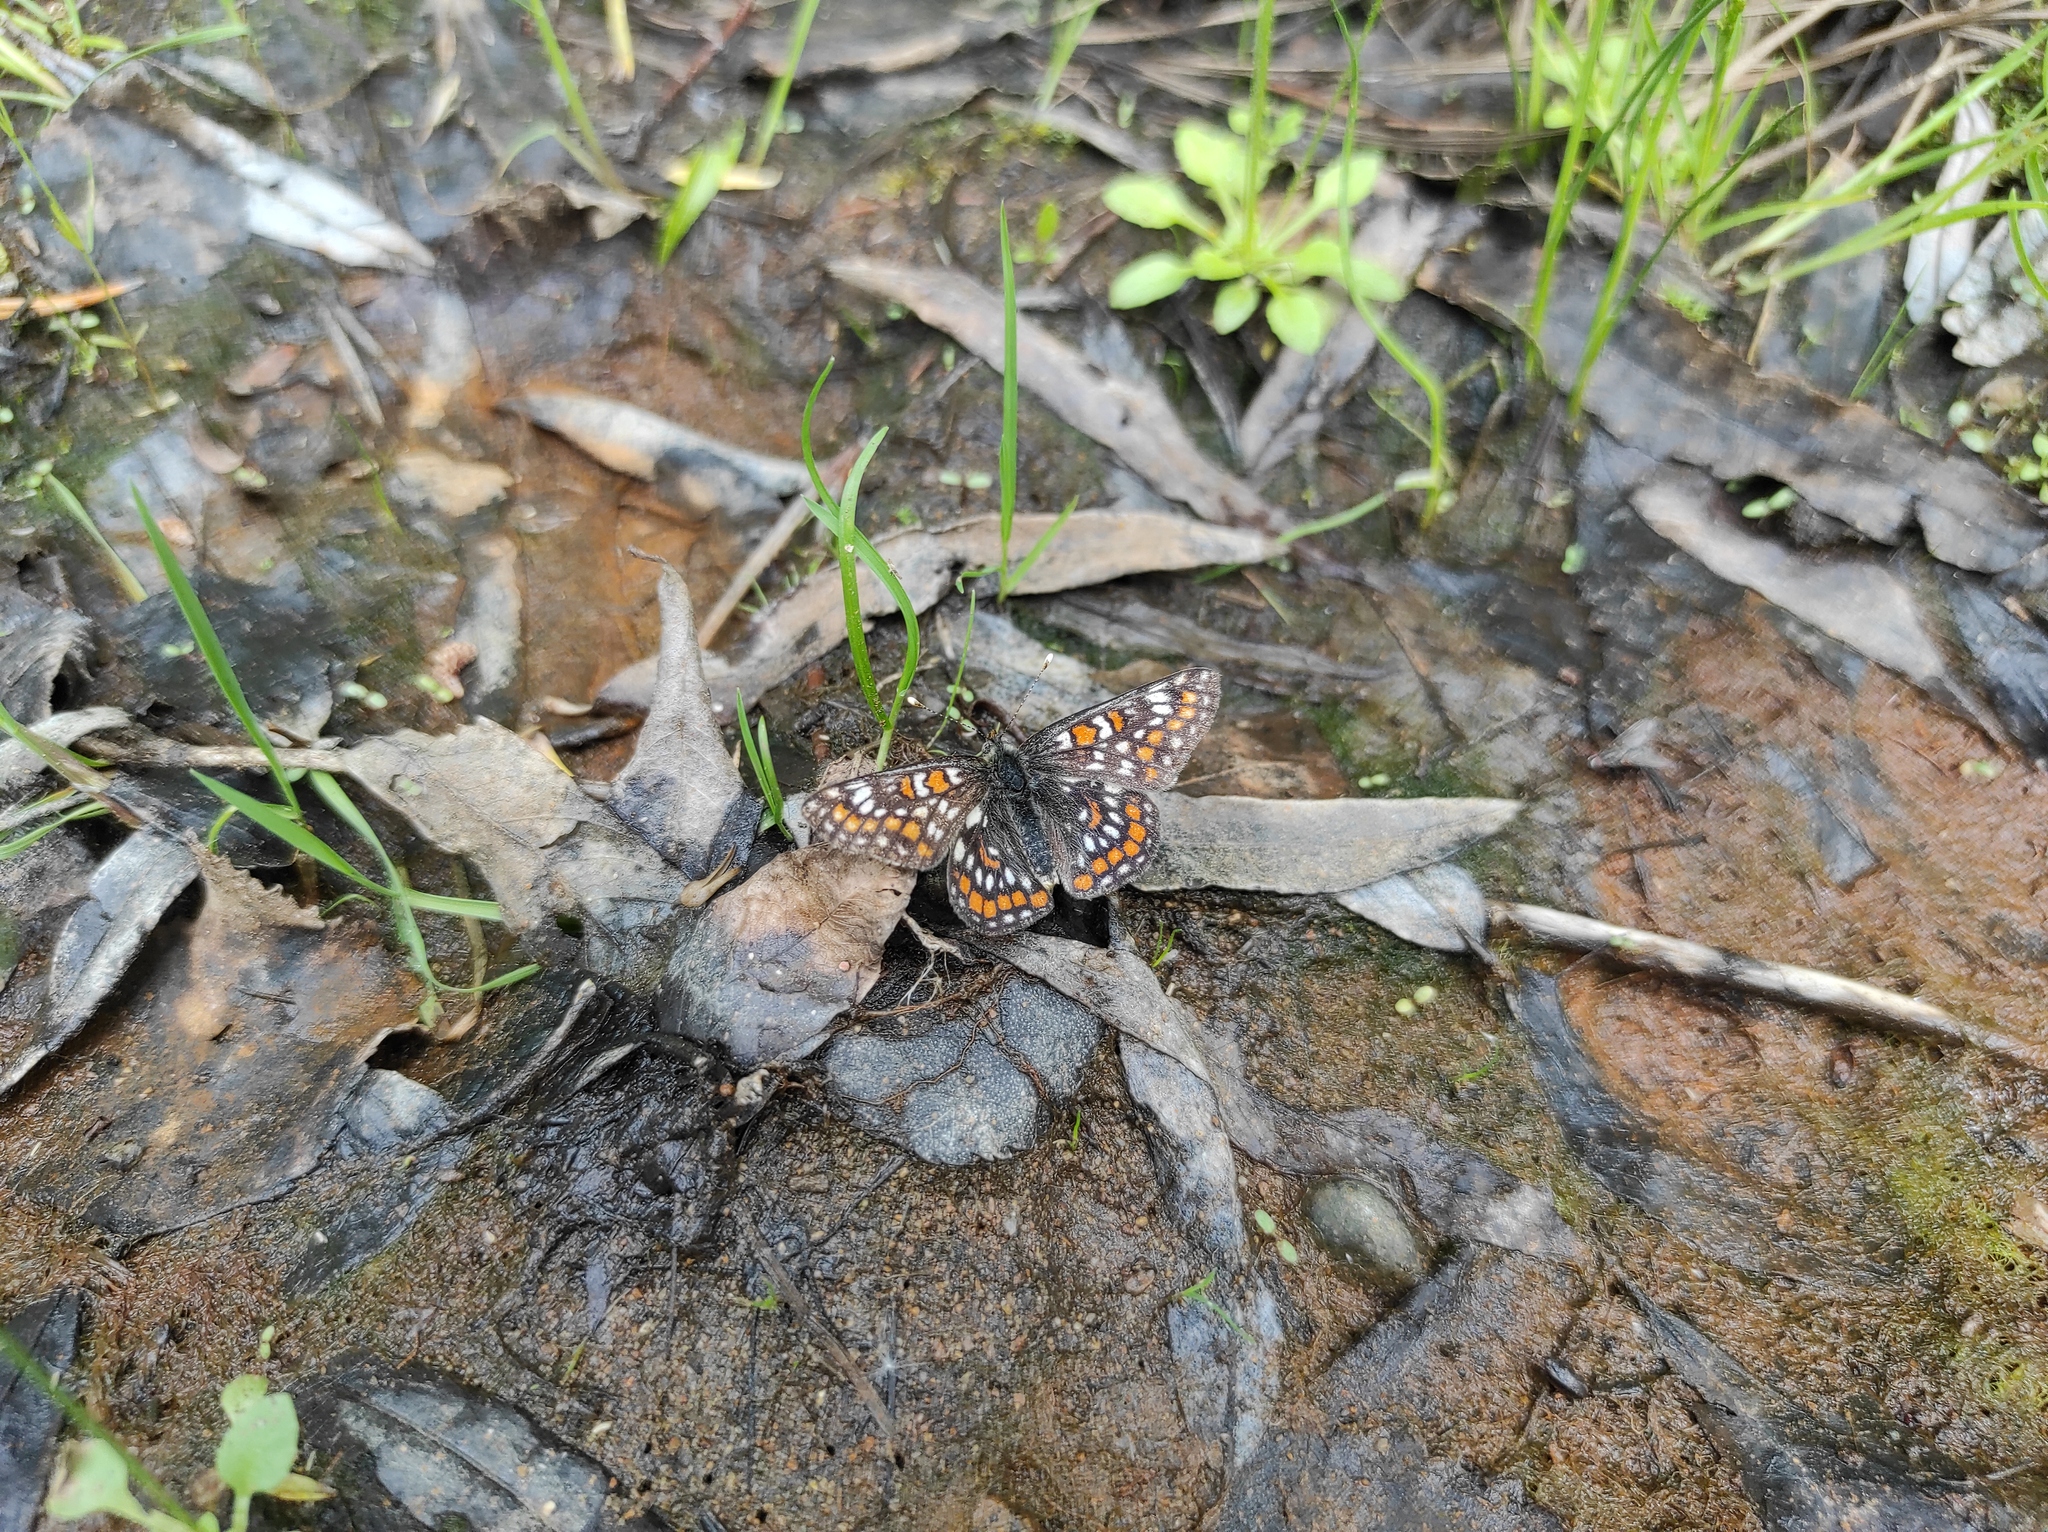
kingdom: Animalia
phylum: Arthropoda
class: Insecta
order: Lepidoptera
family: Nymphalidae
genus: Euphydryas
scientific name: Euphydryas maturna
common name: Scarce fritillary
